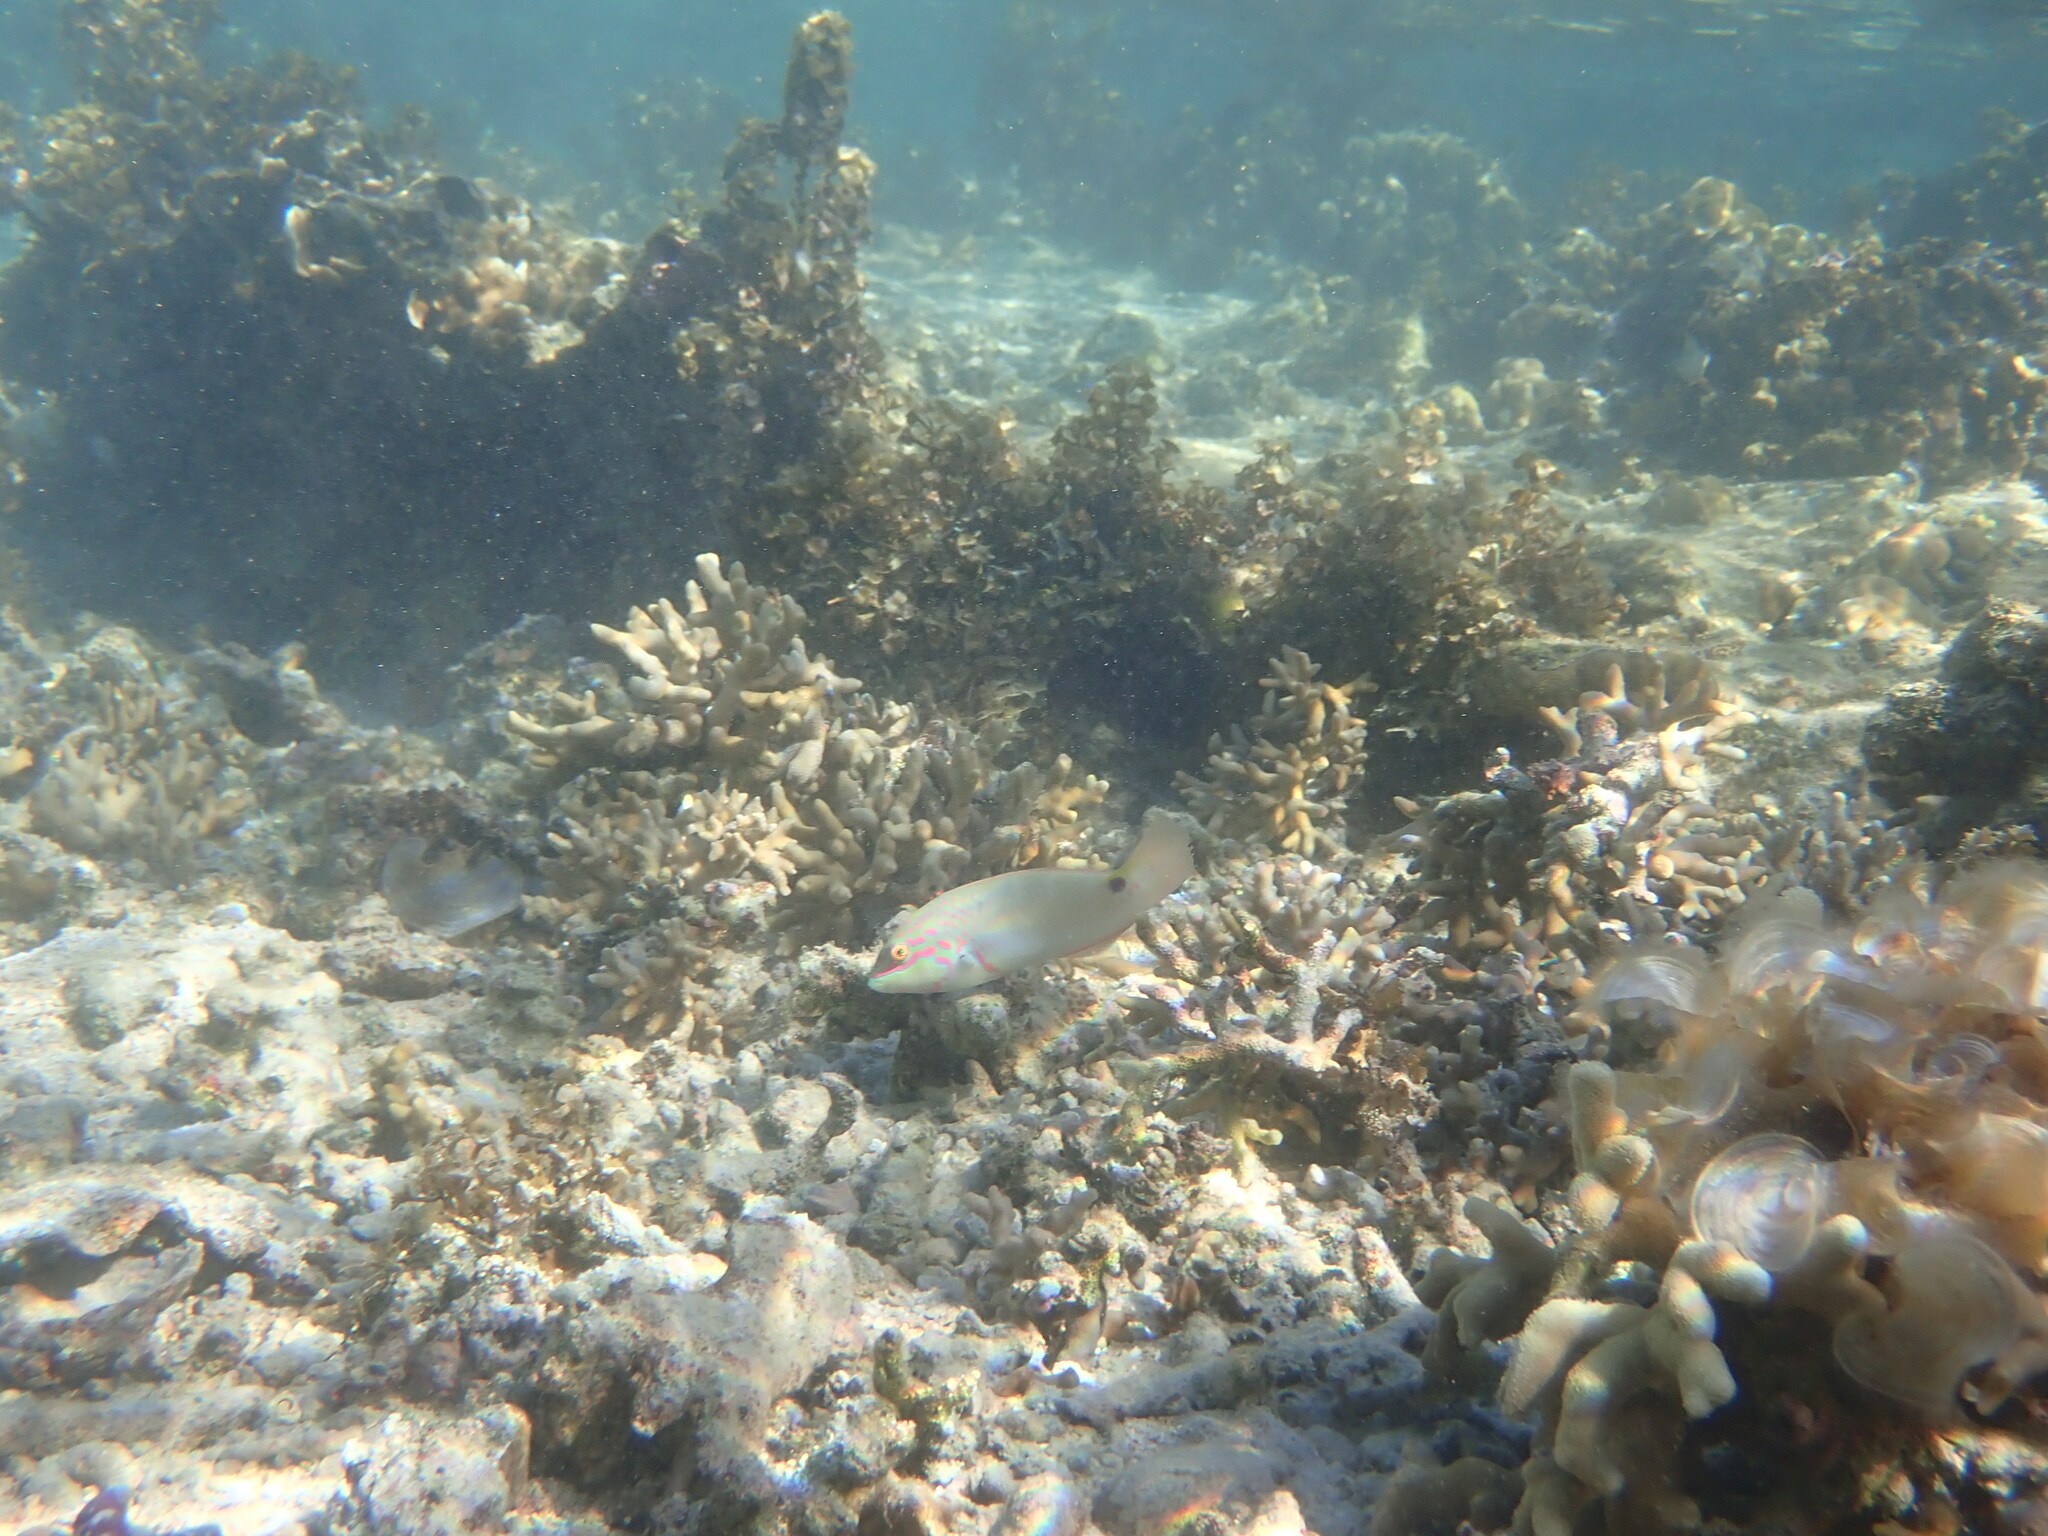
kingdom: Animalia
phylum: Chordata
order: Perciformes
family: Labridae
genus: Halichoeres
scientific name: Halichoeres trimaculatus
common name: Three-spot wrasse
